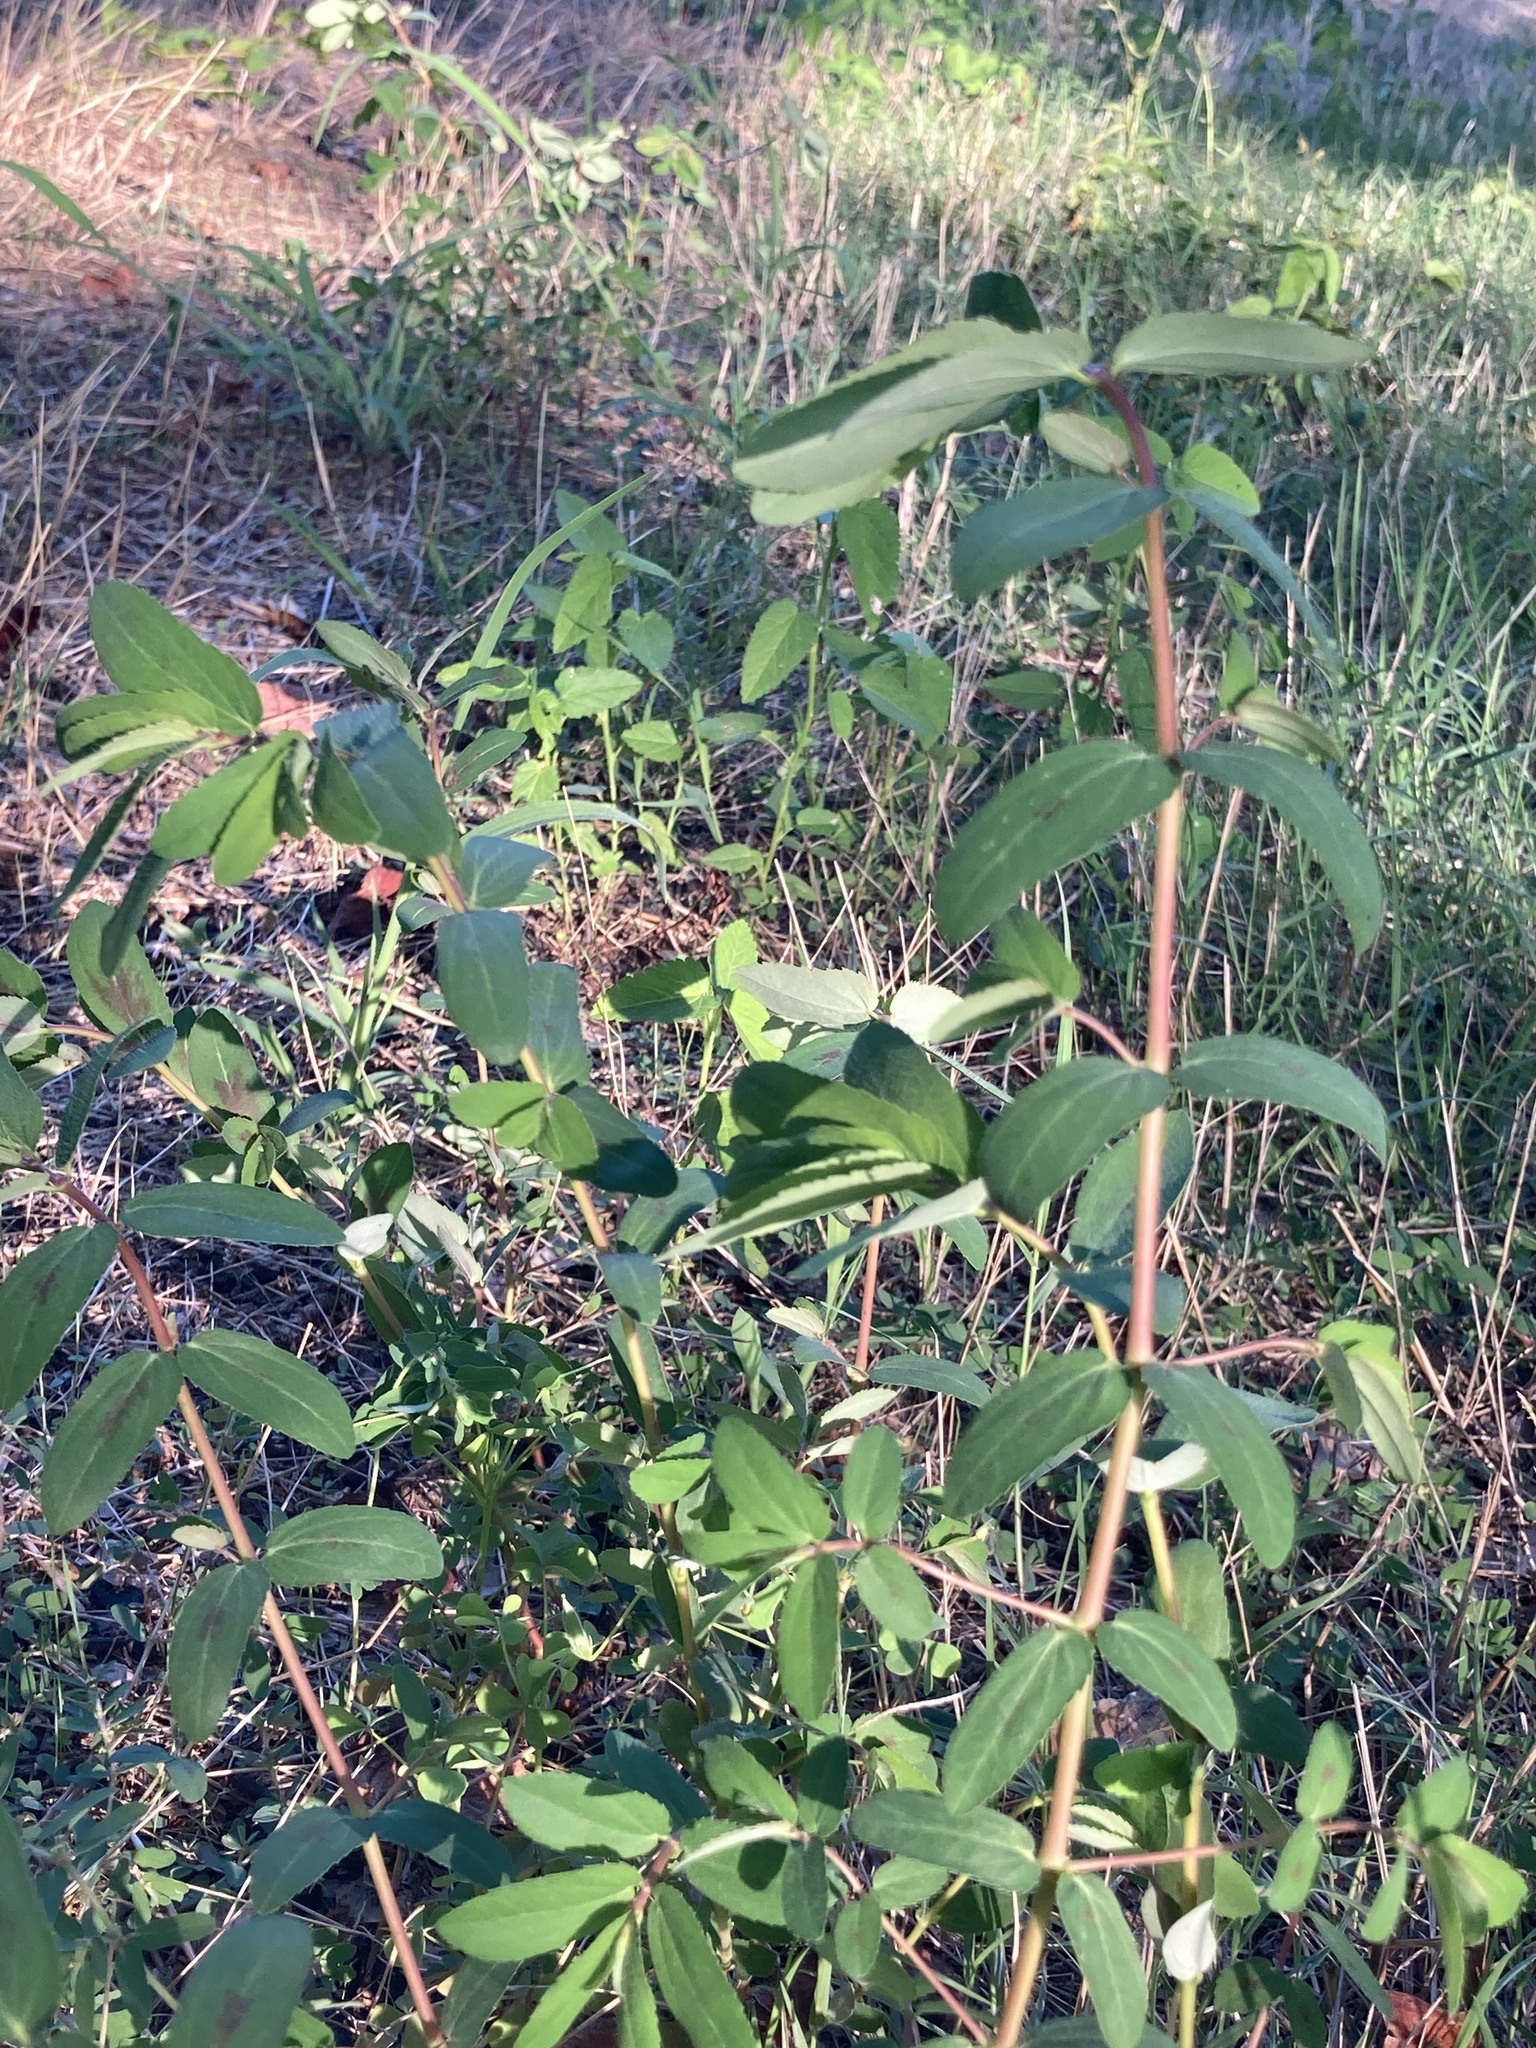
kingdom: Plantae
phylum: Tracheophyta
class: Magnoliopsida
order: Malpighiales
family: Euphorbiaceae
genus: Euphorbia
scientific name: Euphorbia nutans
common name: Eyebane
